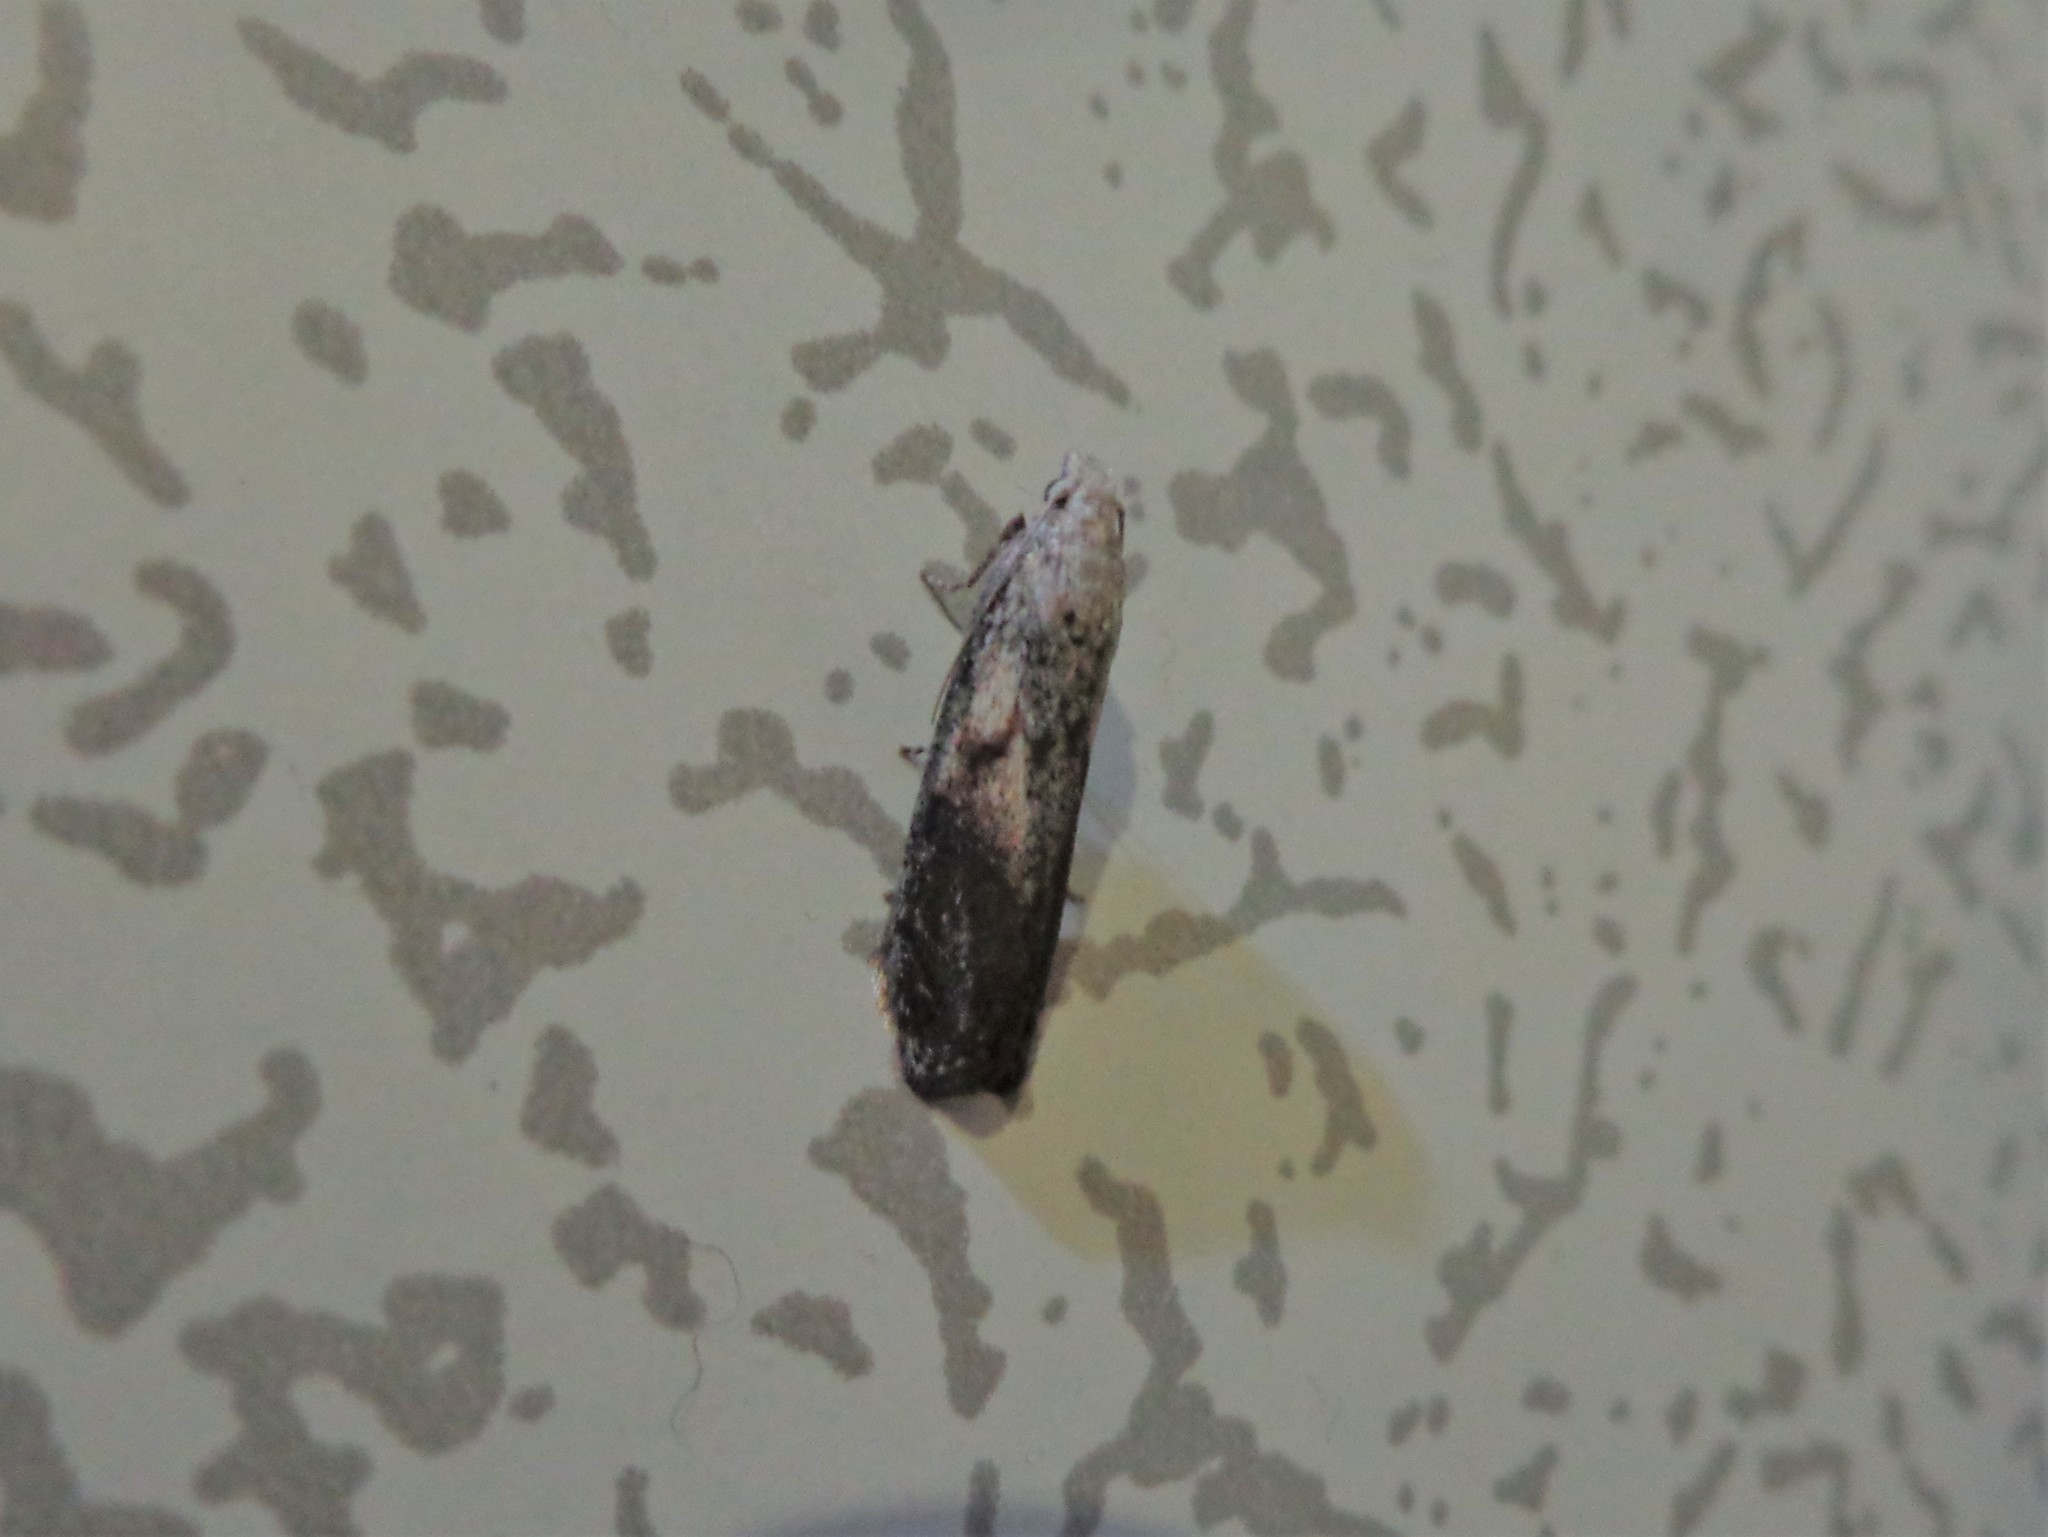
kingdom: Animalia
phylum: Arthropoda
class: Insecta
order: Lepidoptera
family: Pyralidae
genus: Aphomia
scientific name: Aphomia sociella
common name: Bee moth
